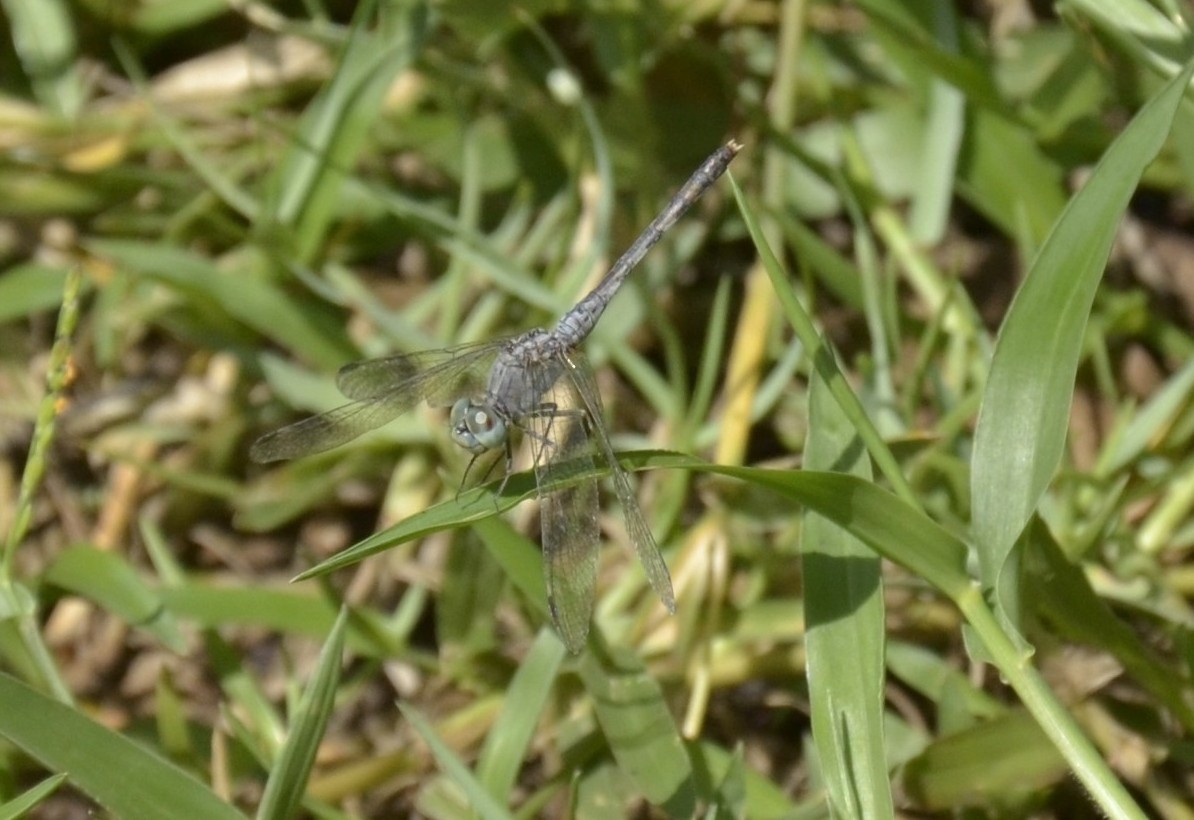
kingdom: Animalia
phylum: Arthropoda
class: Insecta
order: Odonata
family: Libellulidae
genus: Diplacodes
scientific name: Diplacodes trivialis
